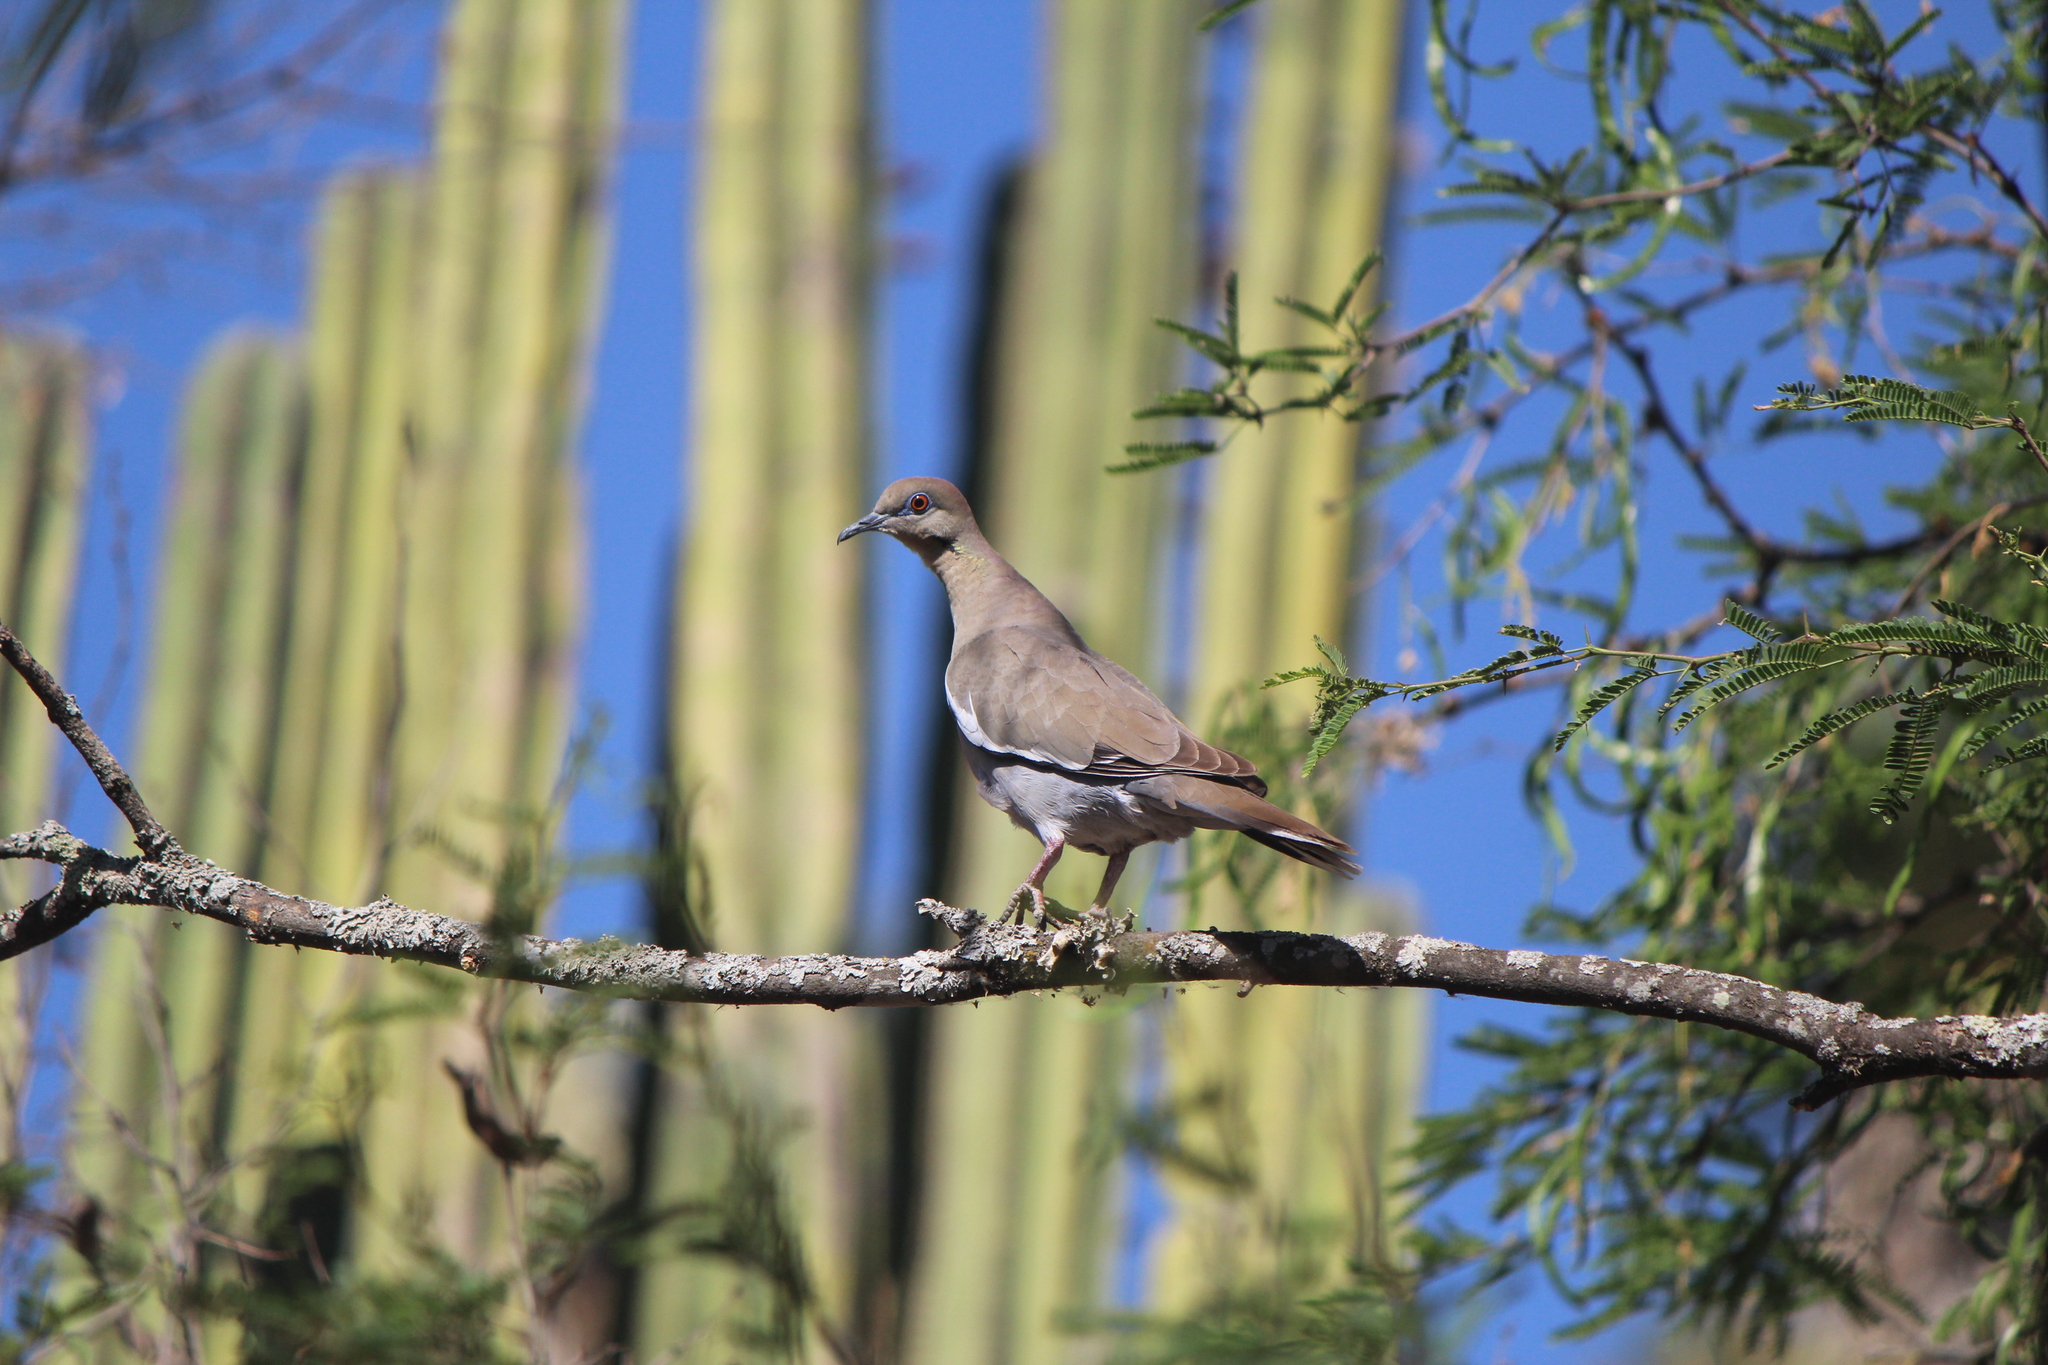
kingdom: Animalia
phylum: Chordata
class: Aves
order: Columbiformes
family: Columbidae
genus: Zenaida
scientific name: Zenaida asiatica
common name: White-winged dove
